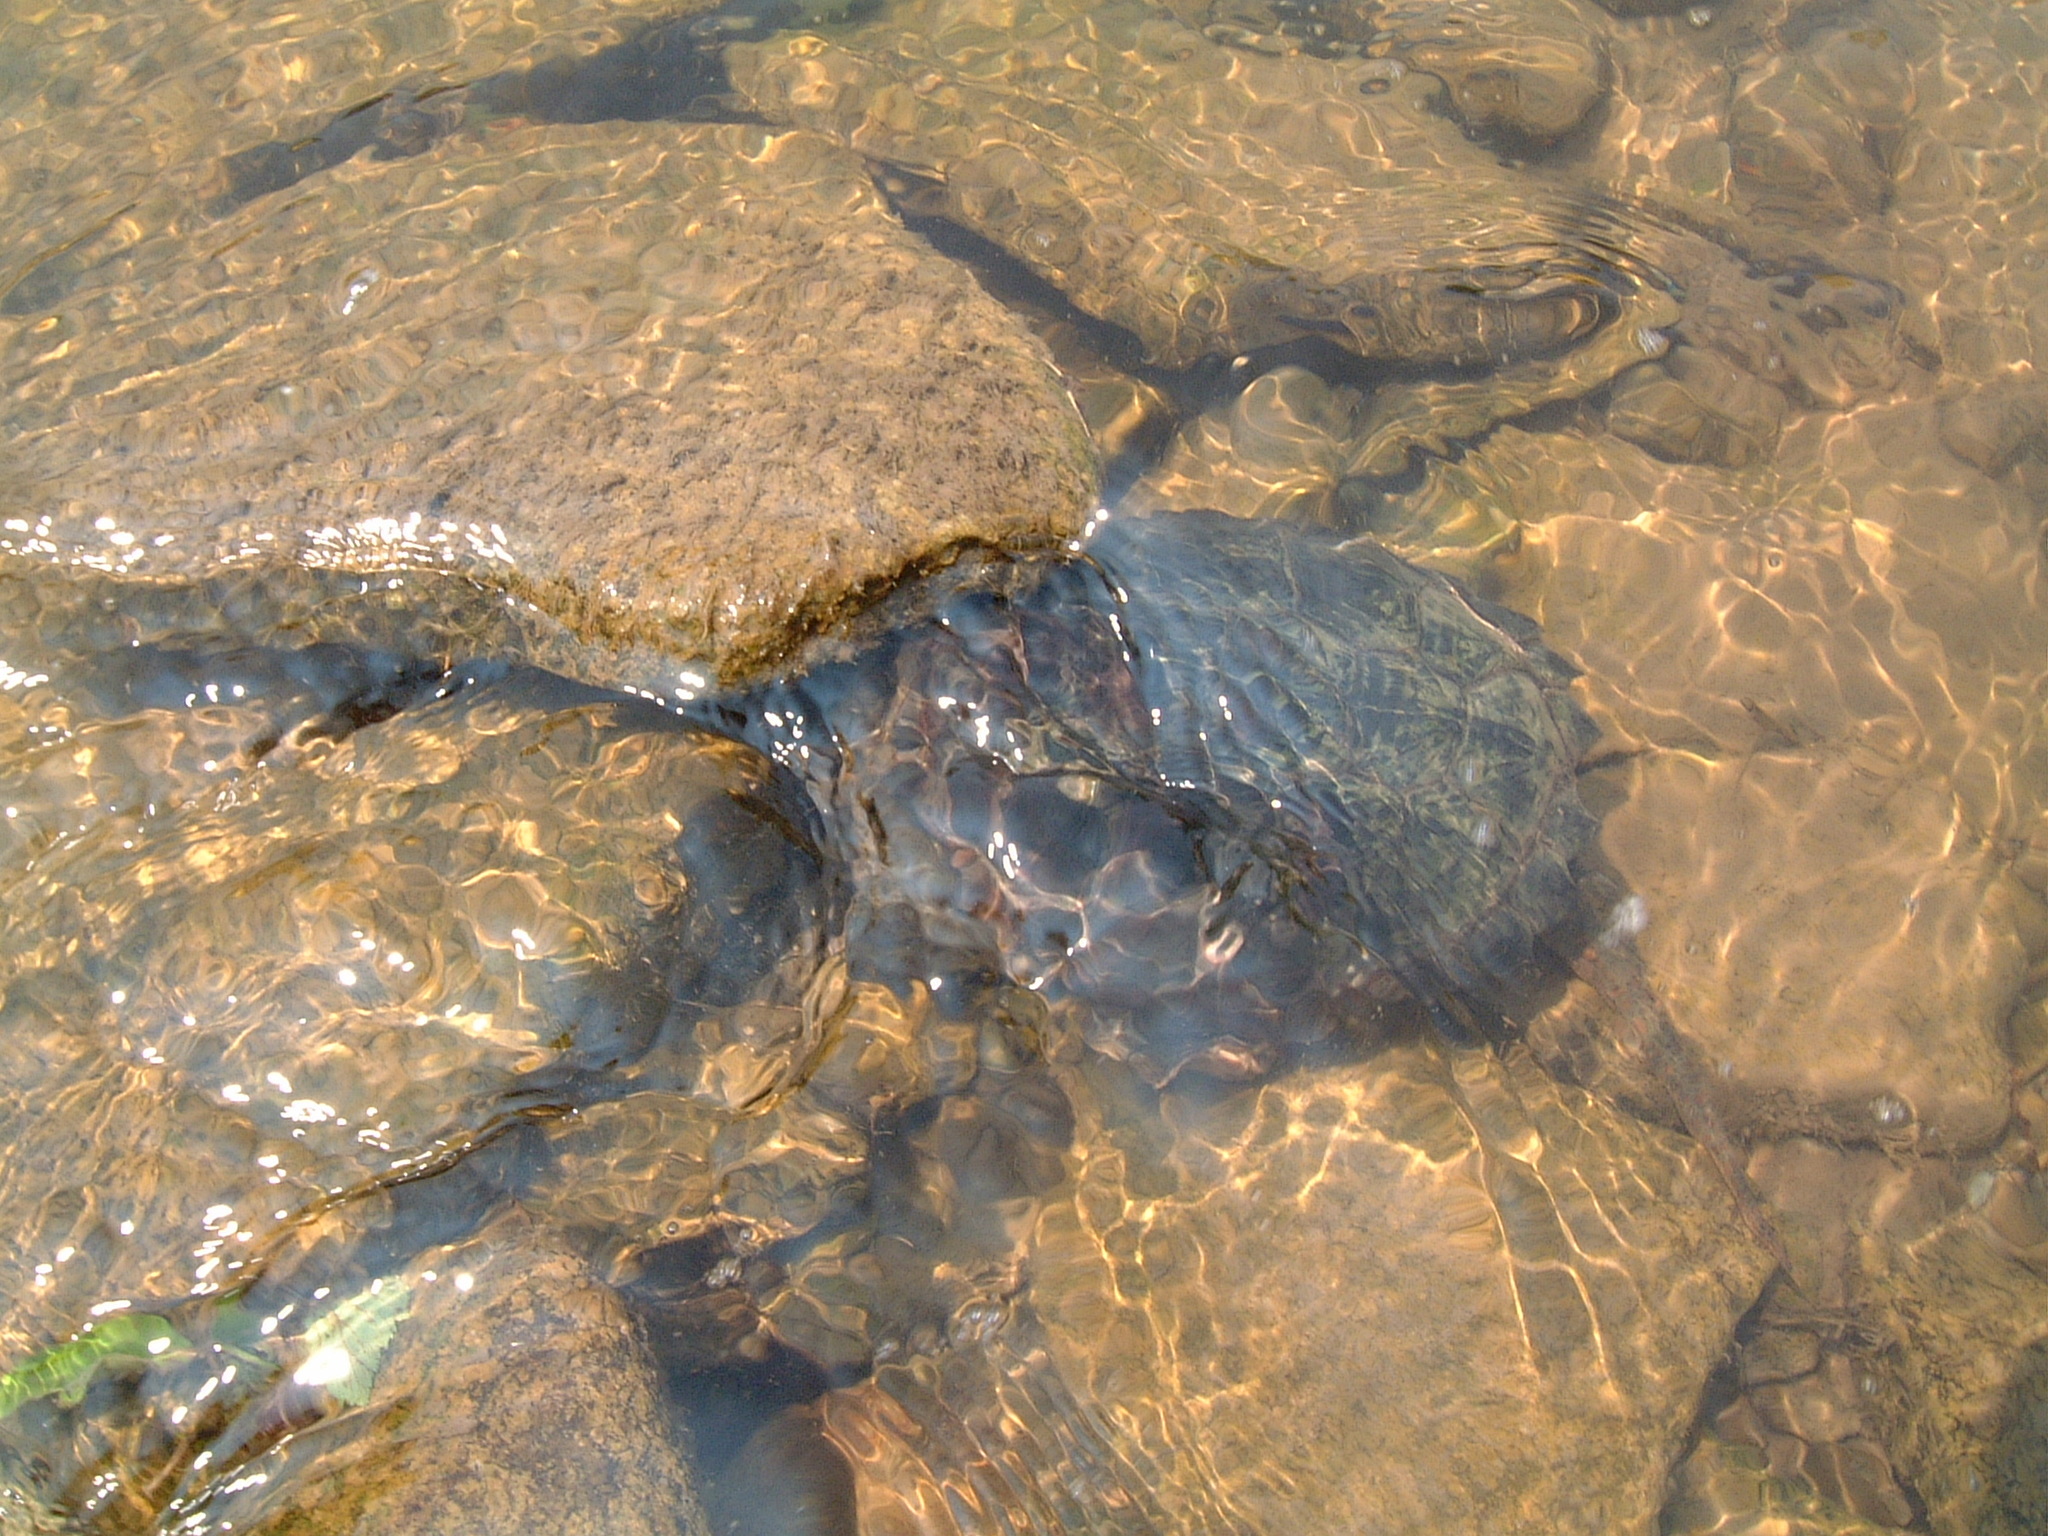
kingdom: Animalia
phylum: Chordata
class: Testudines
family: Chelydridae
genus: Chelydra
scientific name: Chelydra serpentina
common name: Common snapping turtle
